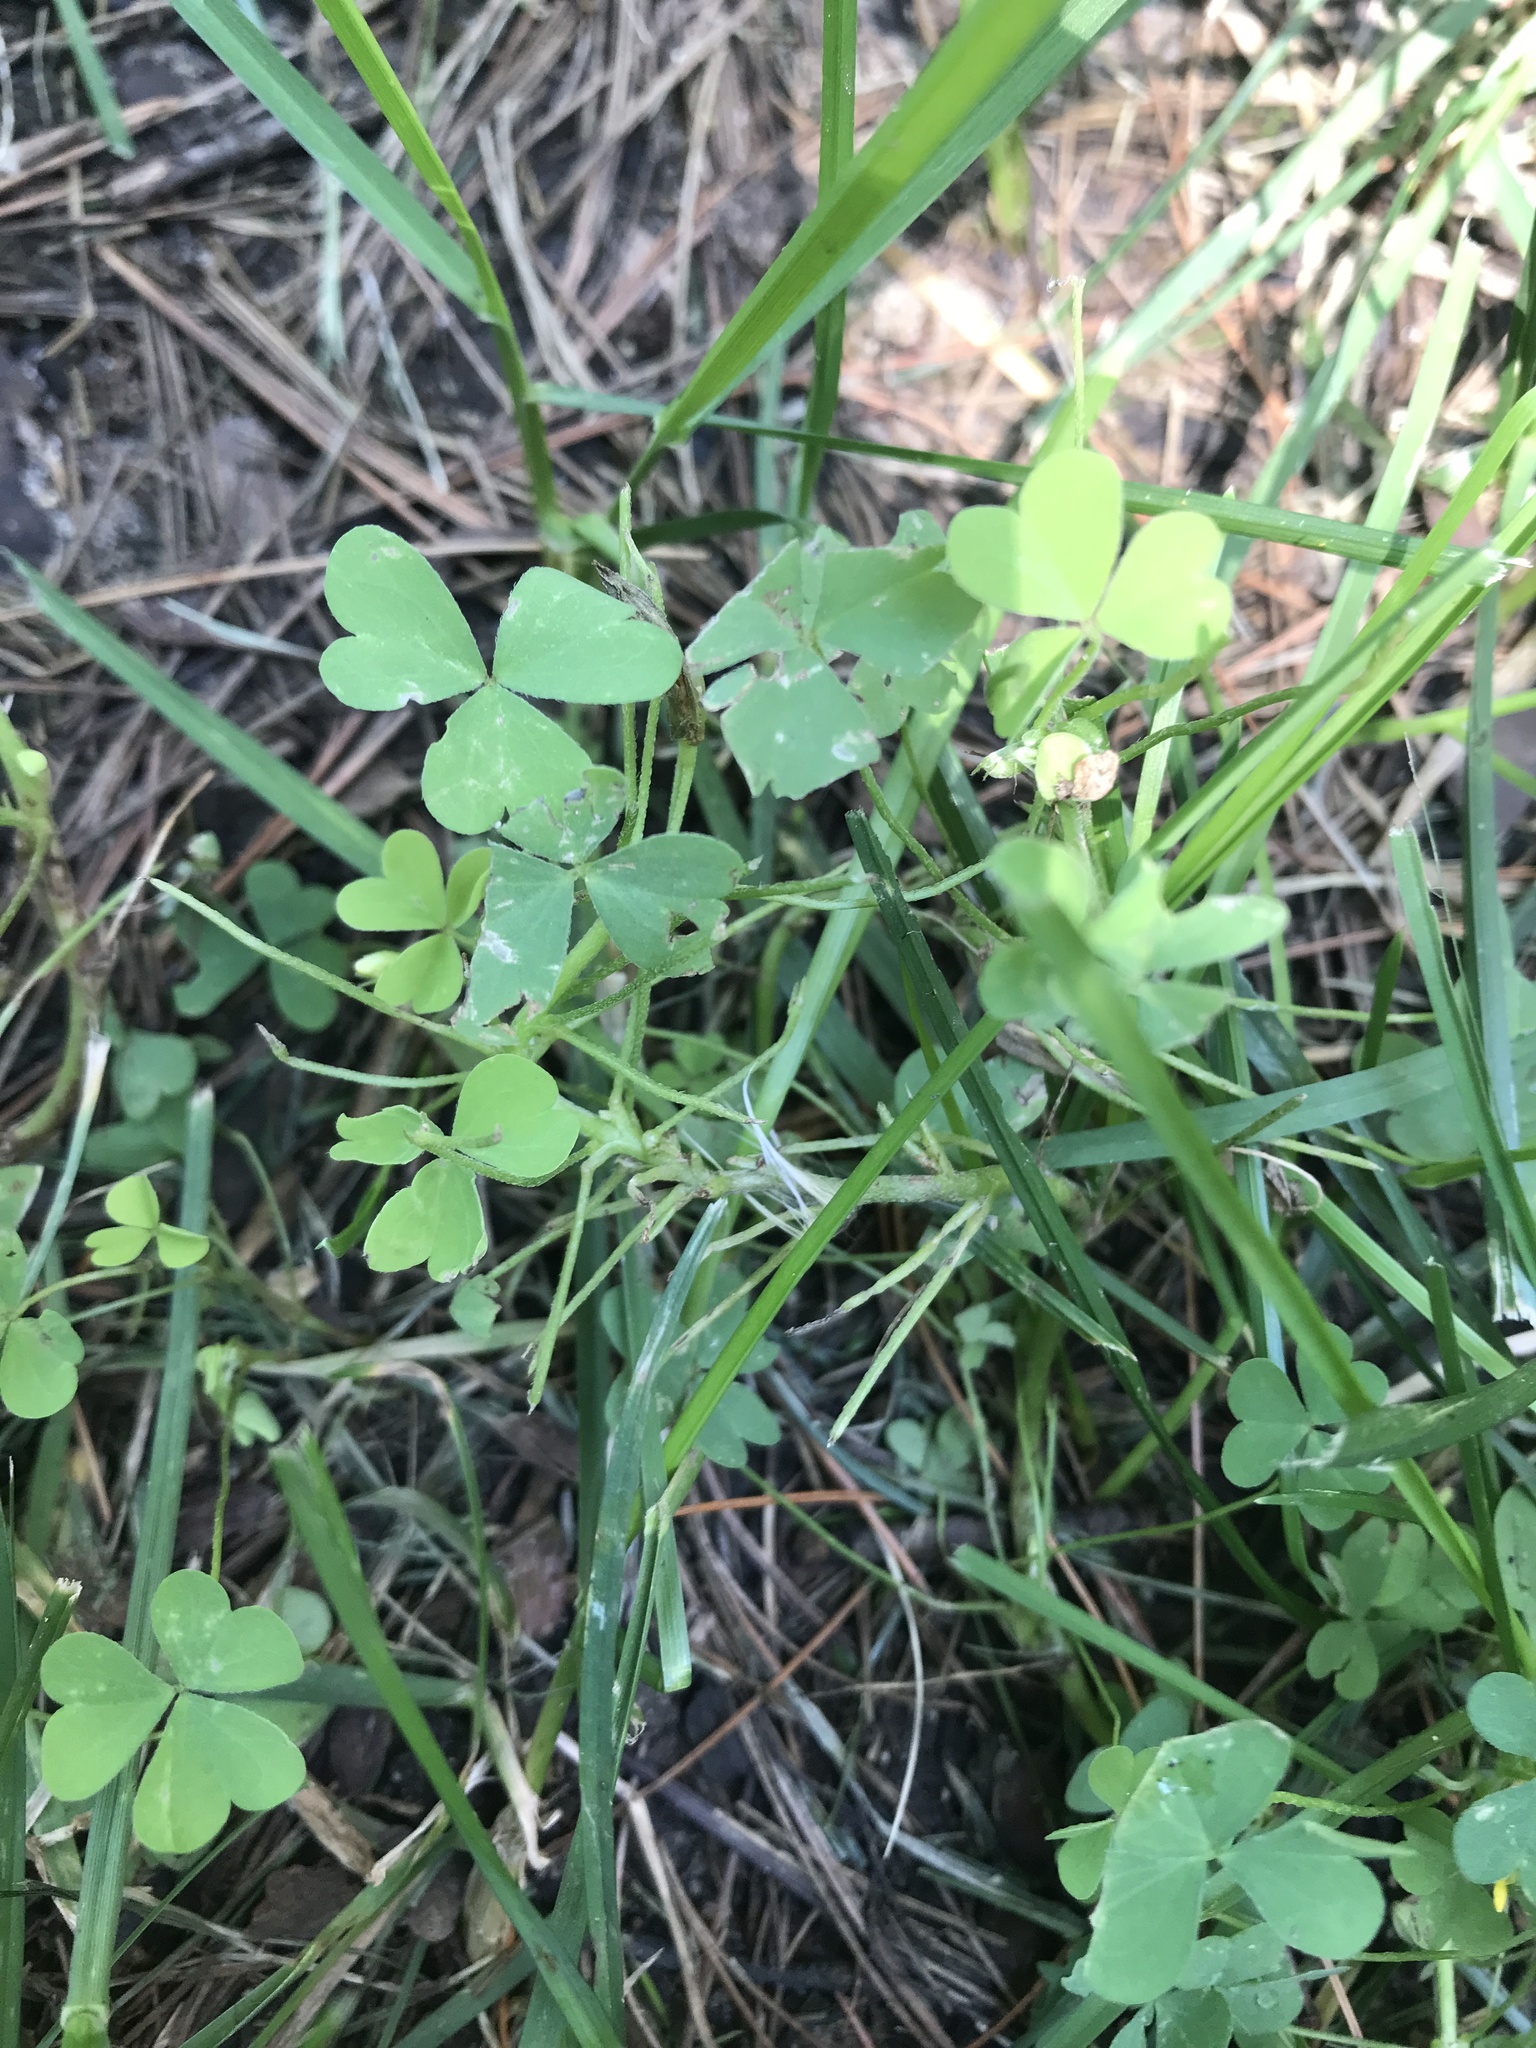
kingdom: Plantae
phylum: Tracheophyta
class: Magnoliopsida
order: Oxalidales
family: Oxalidaceae
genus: Oxalis
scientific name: Oxalis dillenii
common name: Sussex yellow-sorrel
